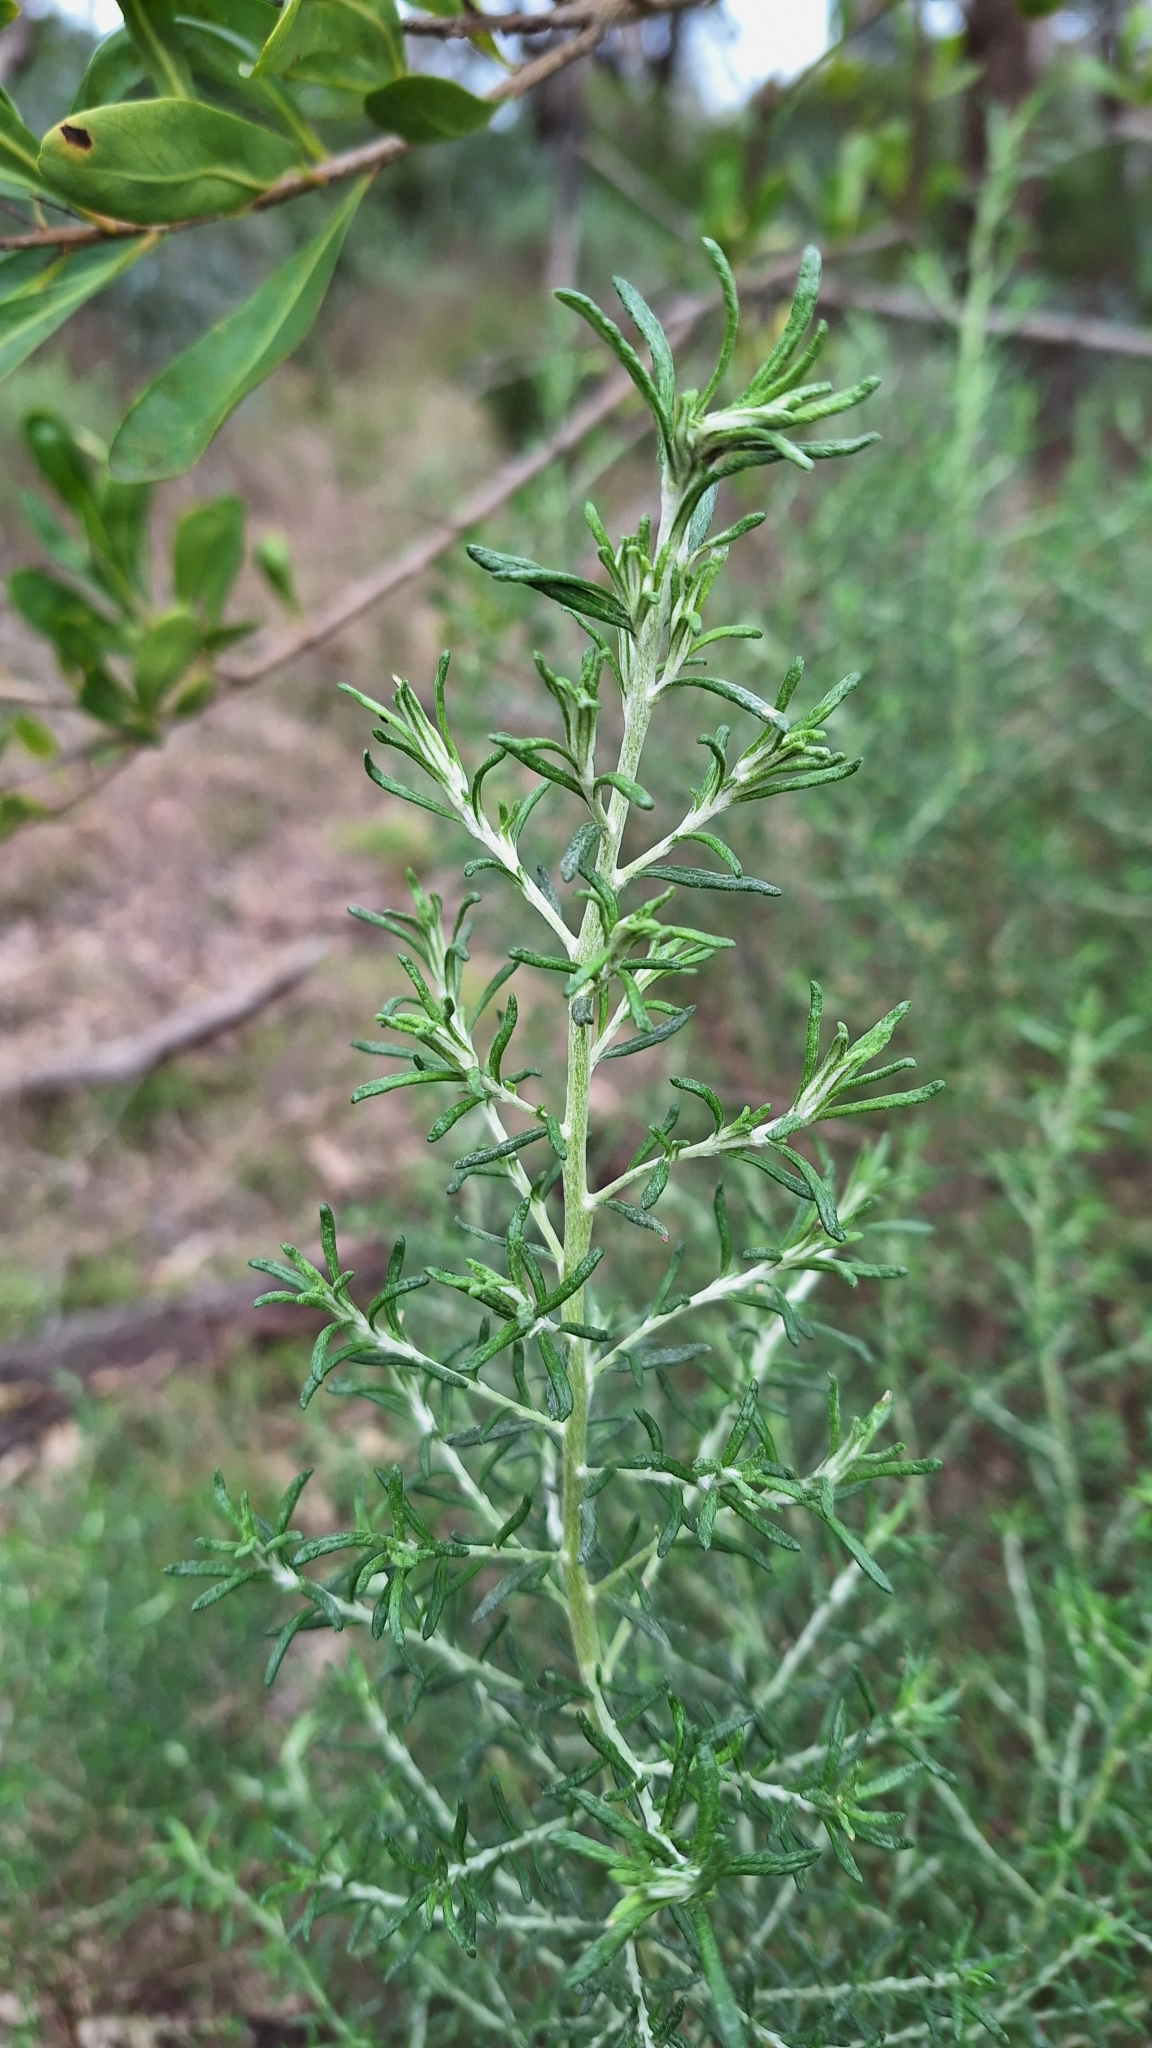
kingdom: Plantae
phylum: Tracheophyta
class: Magnoliopsida
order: Asterales
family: Asteraceae
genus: Olearia
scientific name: Olearia ramulosa
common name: Twiggy daisybush
